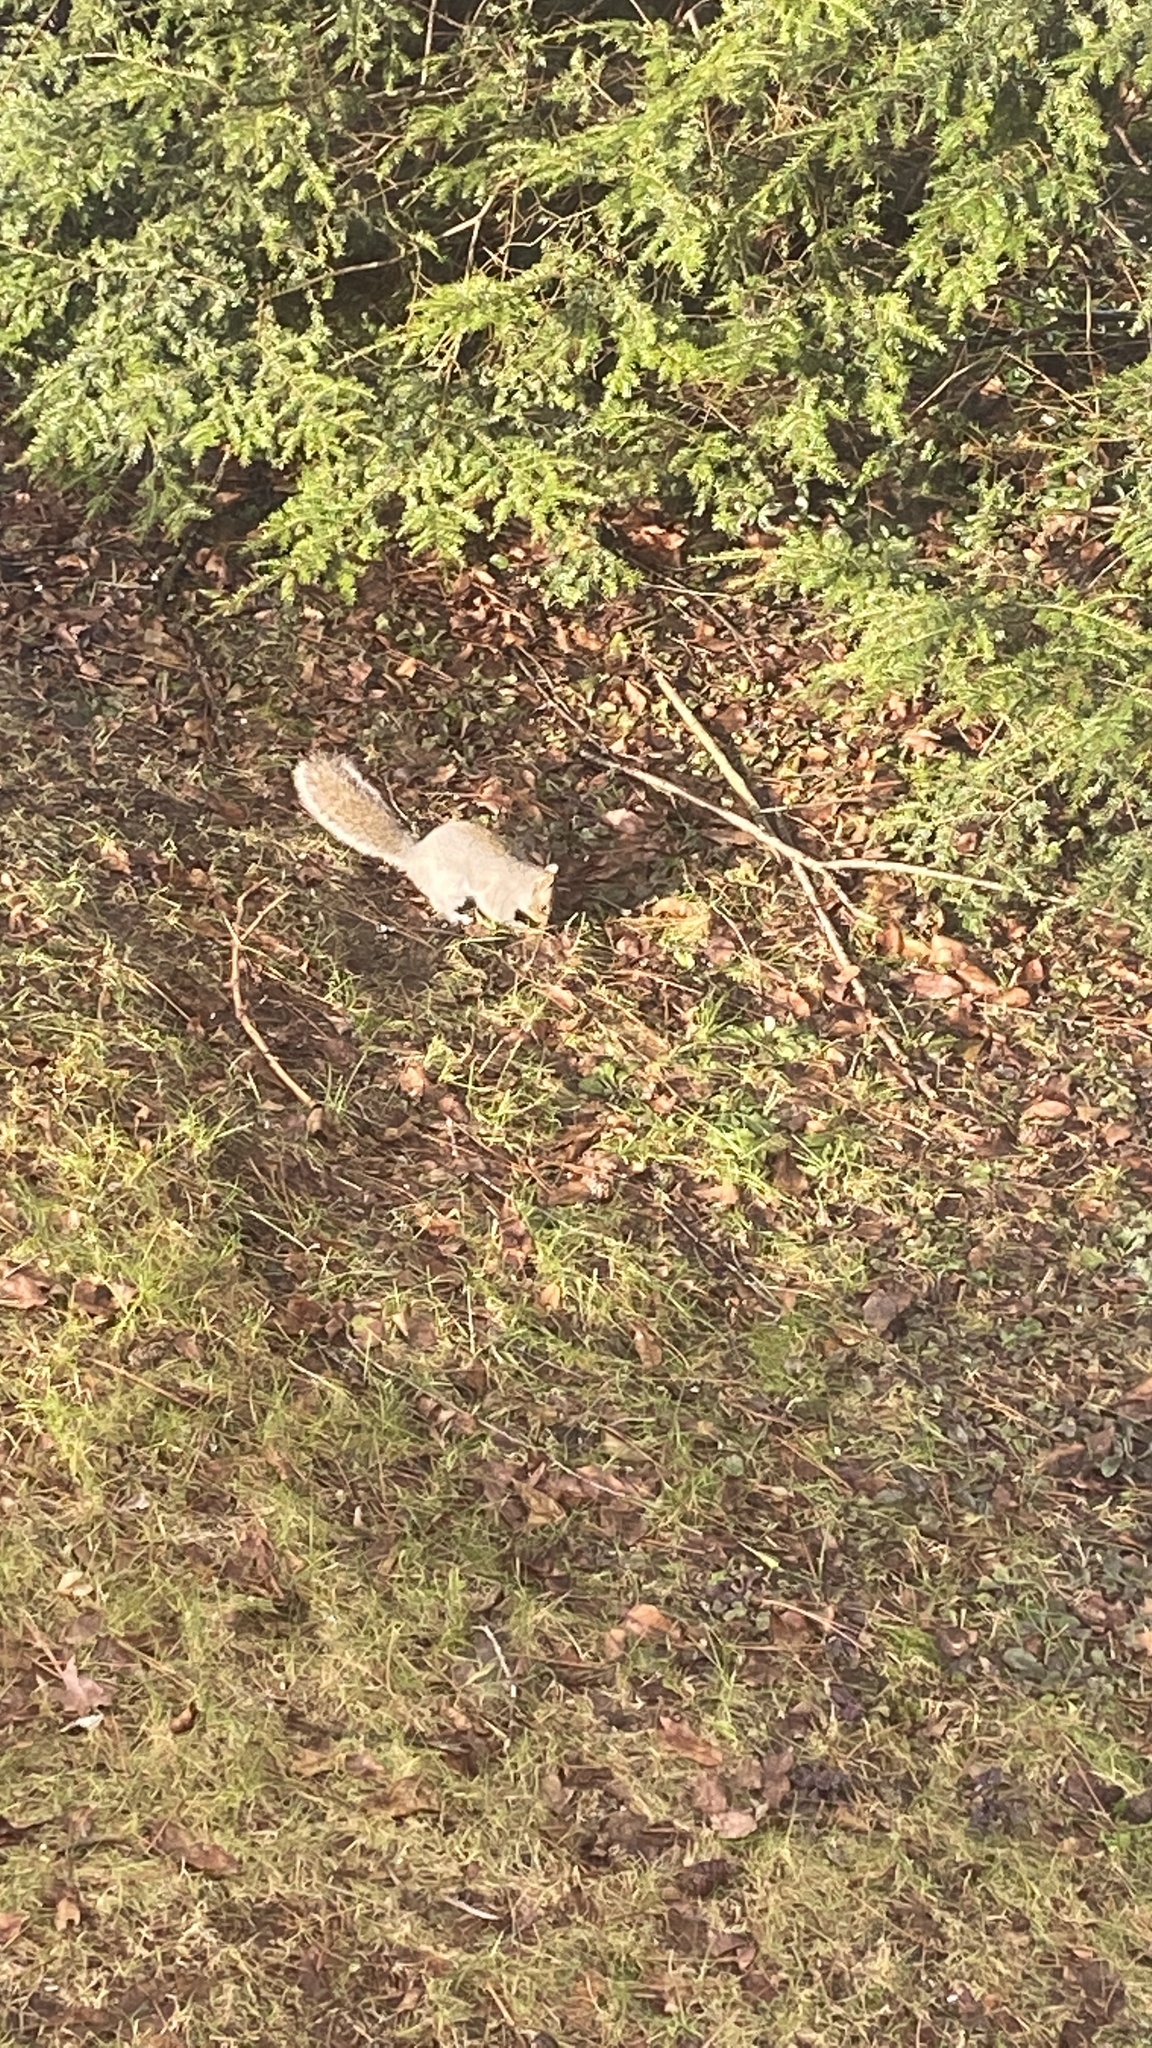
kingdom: Animalia
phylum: Chordata
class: Mammalia
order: Rodentia
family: Sciuridae
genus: Sciurus
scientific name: Sciurus carolinensis
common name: Eastern gray squirrel
